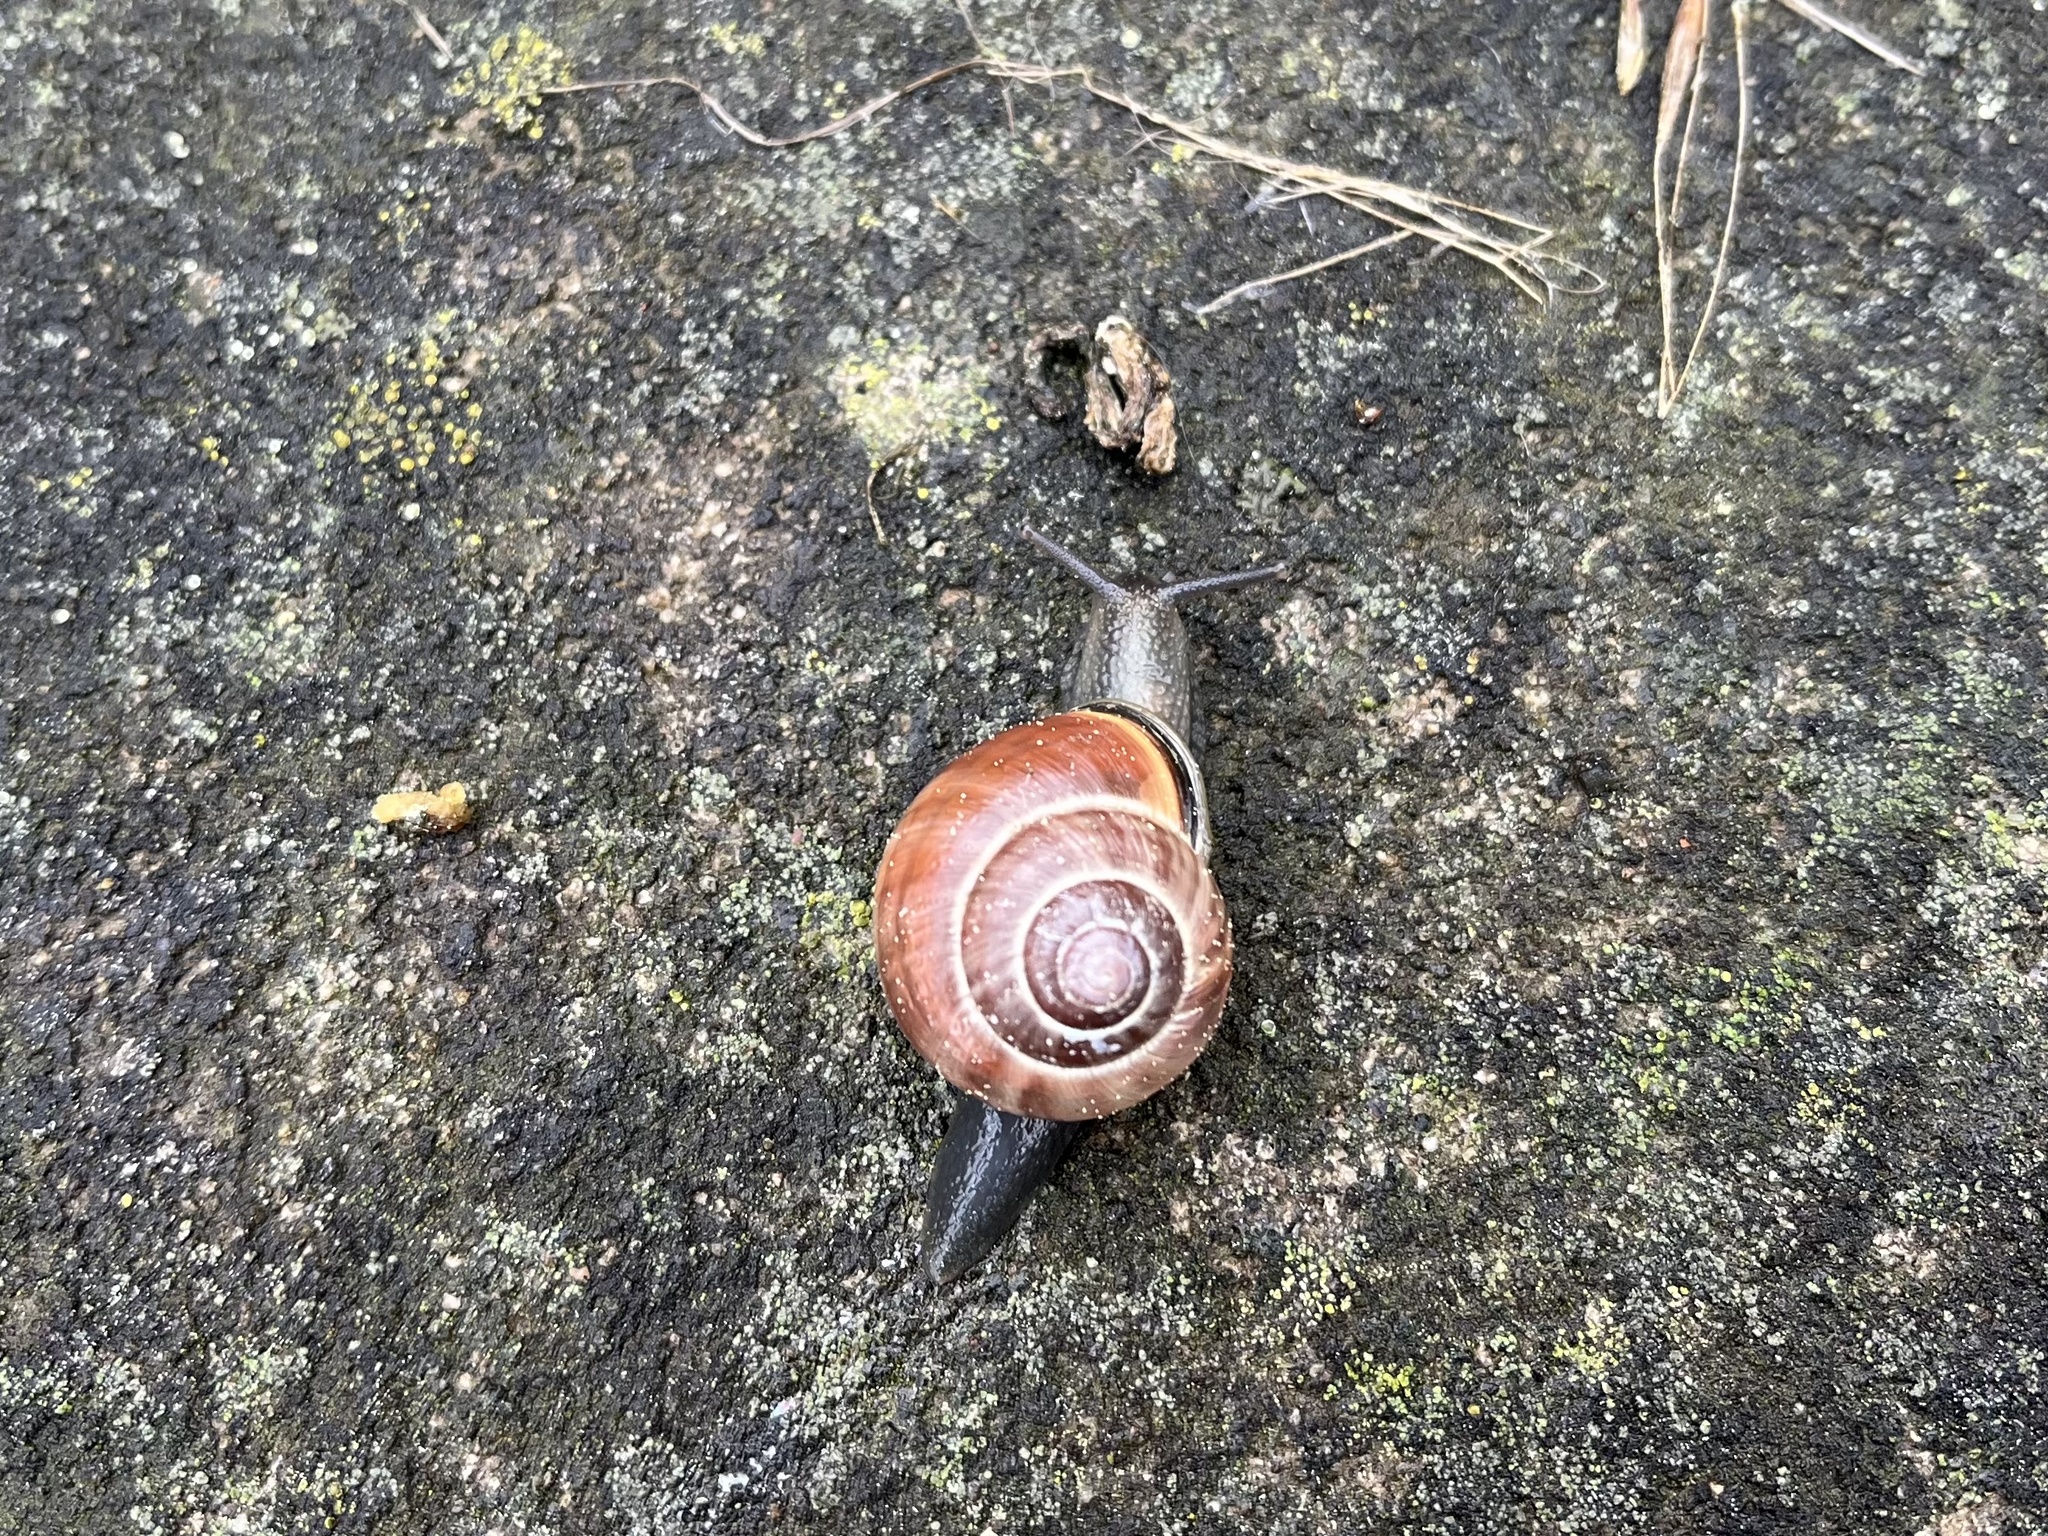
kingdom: Animalia
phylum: Mollusca
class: Gastropoda
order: Stylommatophora
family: Helicidae
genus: Cepaea
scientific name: Cepaea nemoralis
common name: Grovesnail
